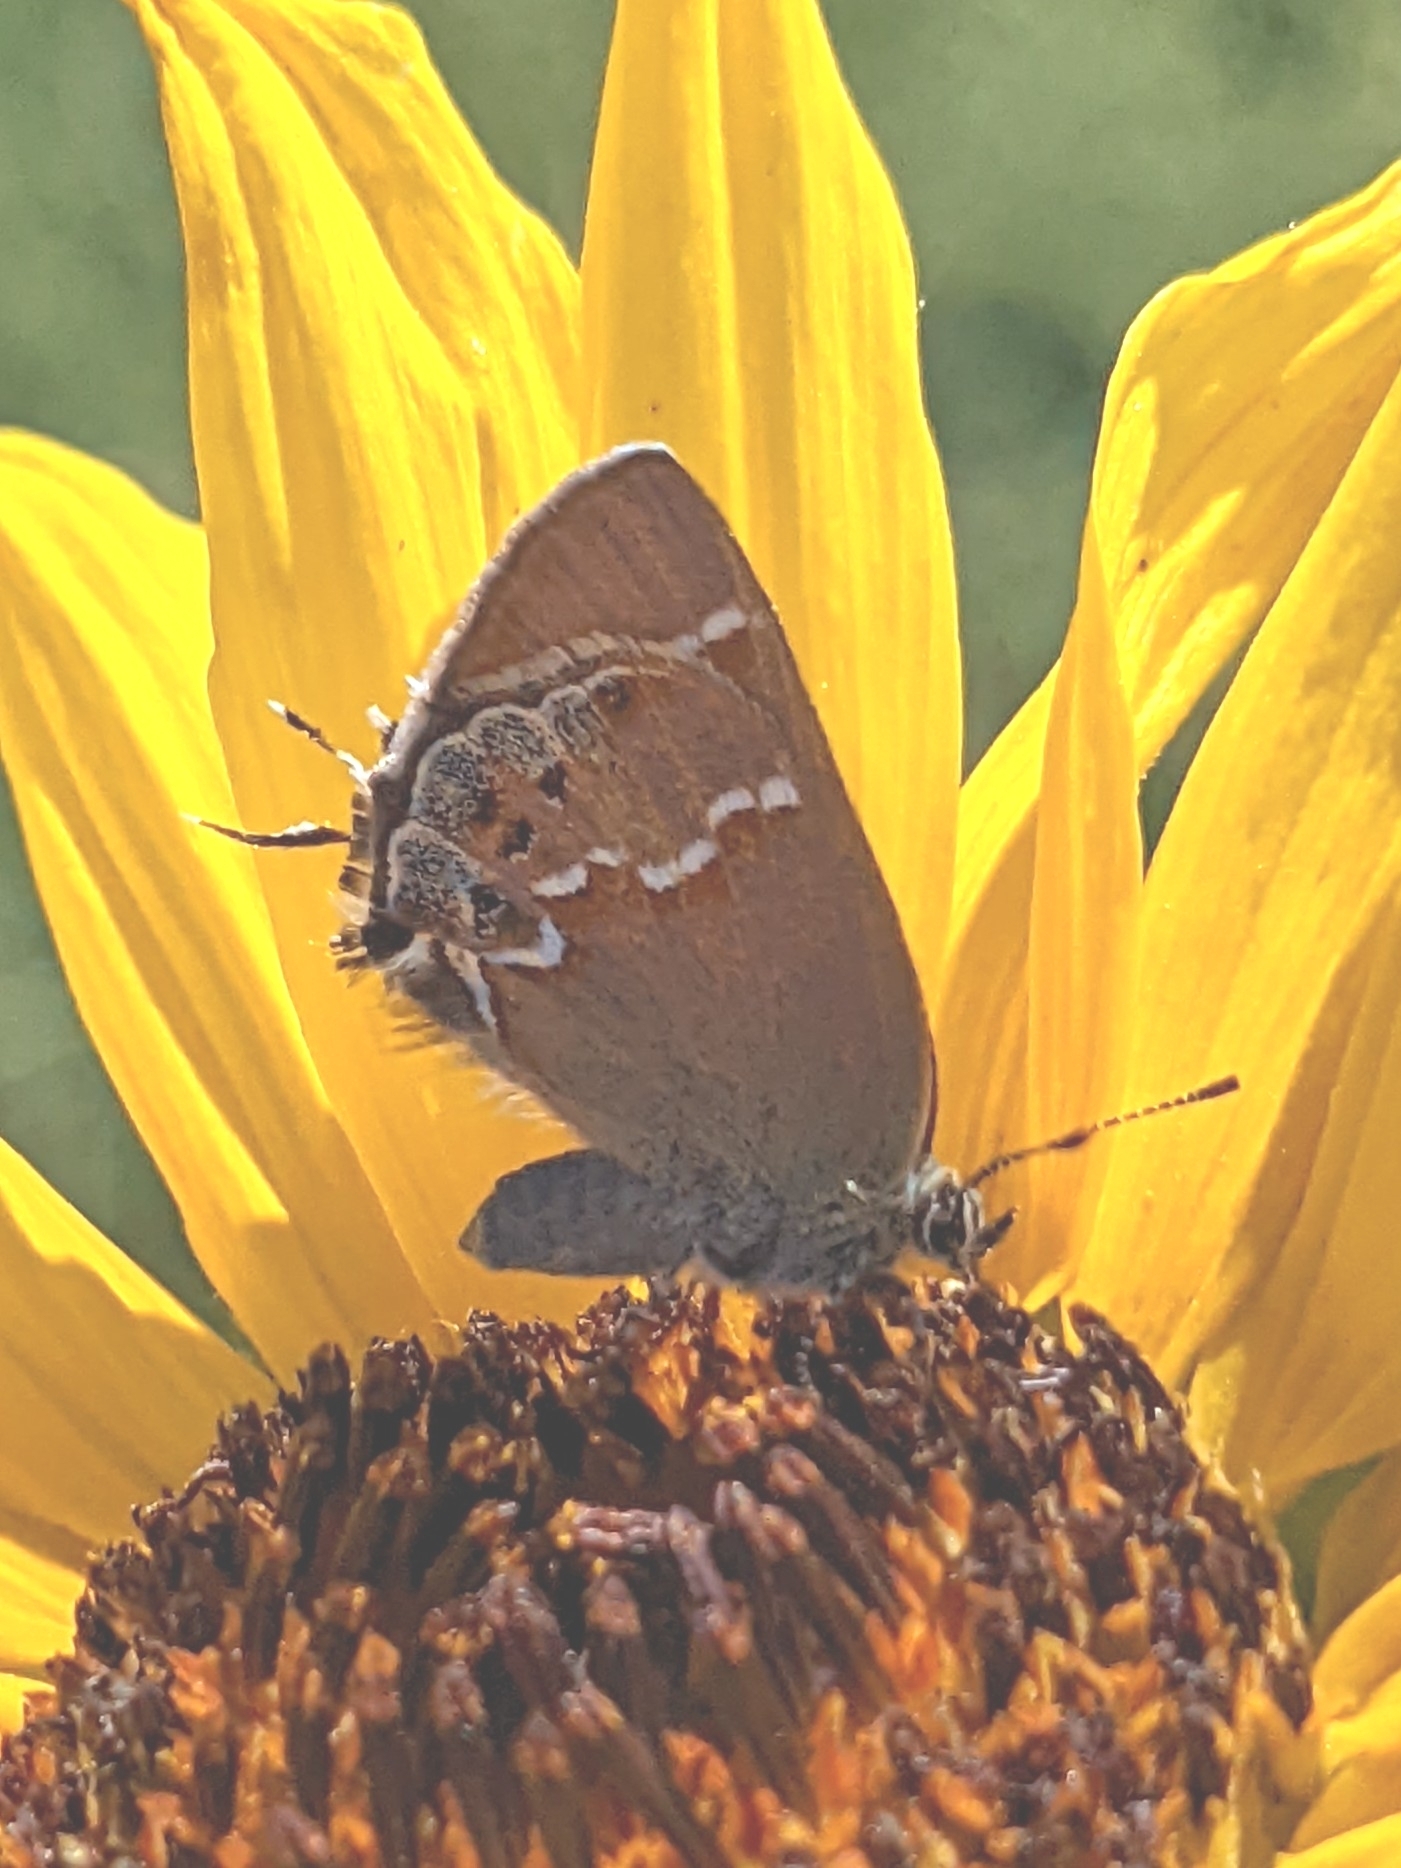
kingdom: Animalia
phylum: Arthropoda
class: Insecta
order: Lepidoptera
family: Lycaenidae
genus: Mitoura
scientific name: Mitoura gryneus
